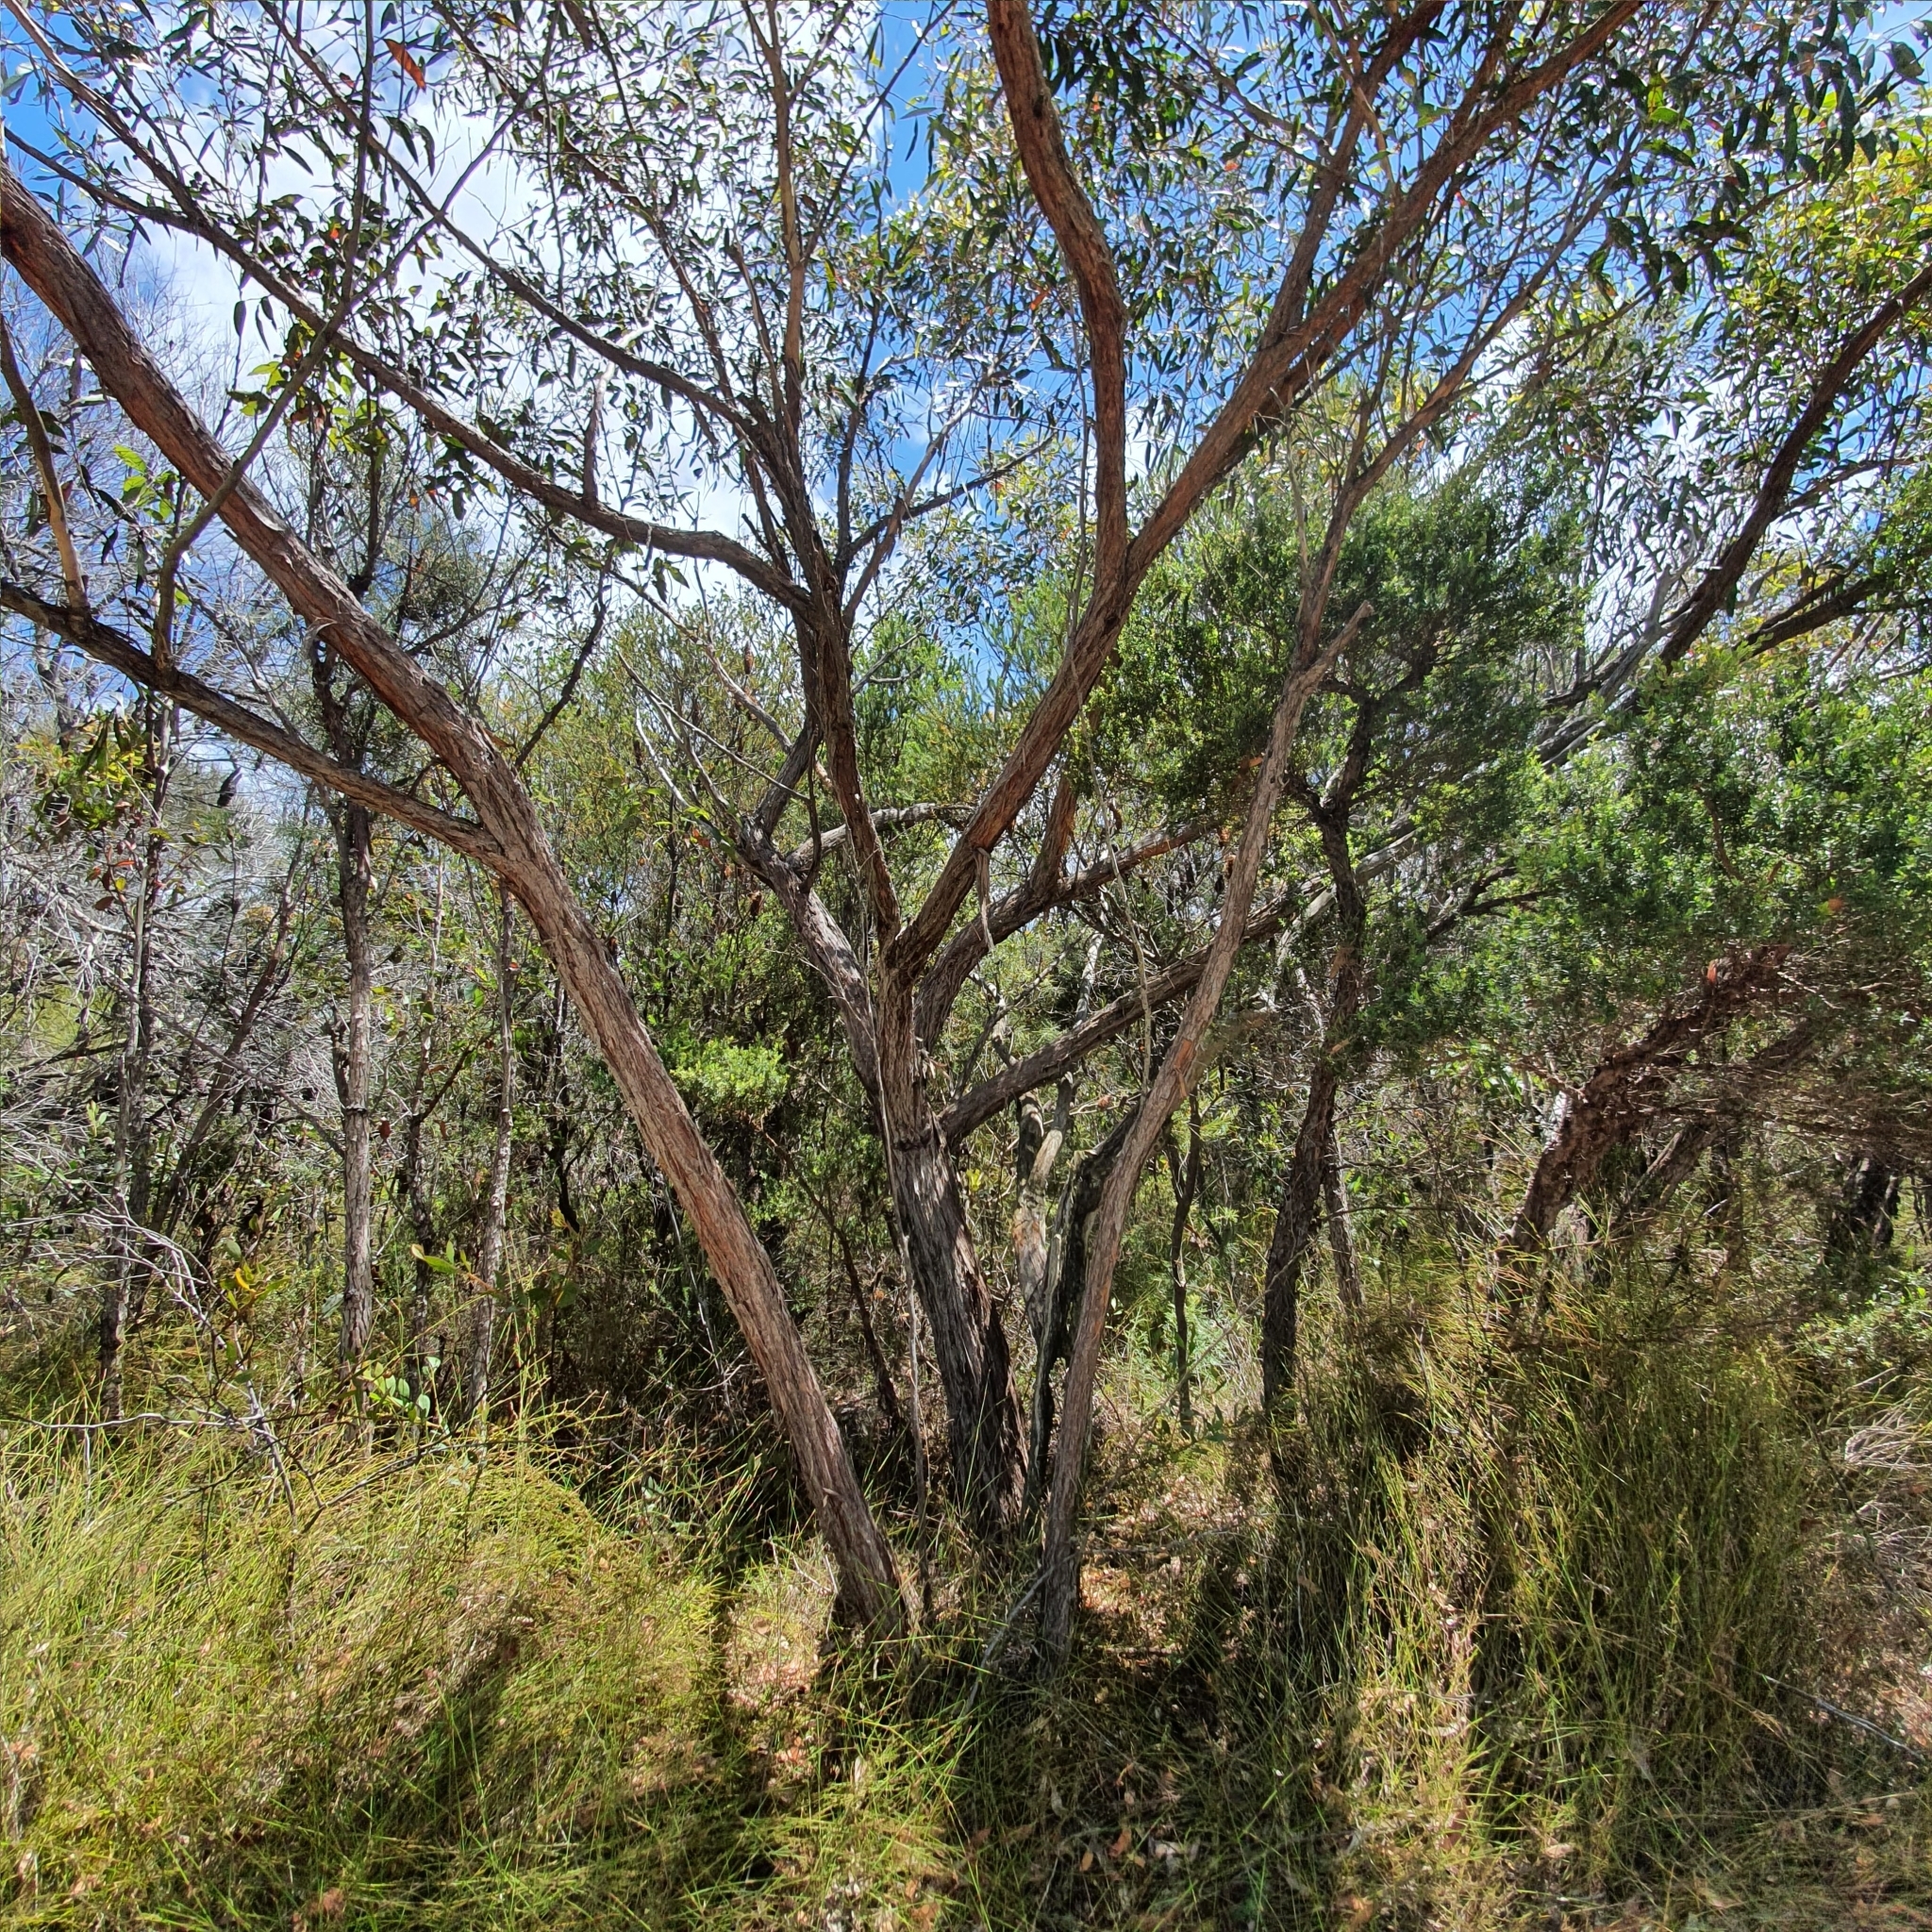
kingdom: Plantae
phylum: Tracheophyta
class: Magnoliopsida
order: Myrtales
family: Myrtaceae
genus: Eucalyptus
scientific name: Eucalyptus camfieldii
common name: Camfield's stringybark
